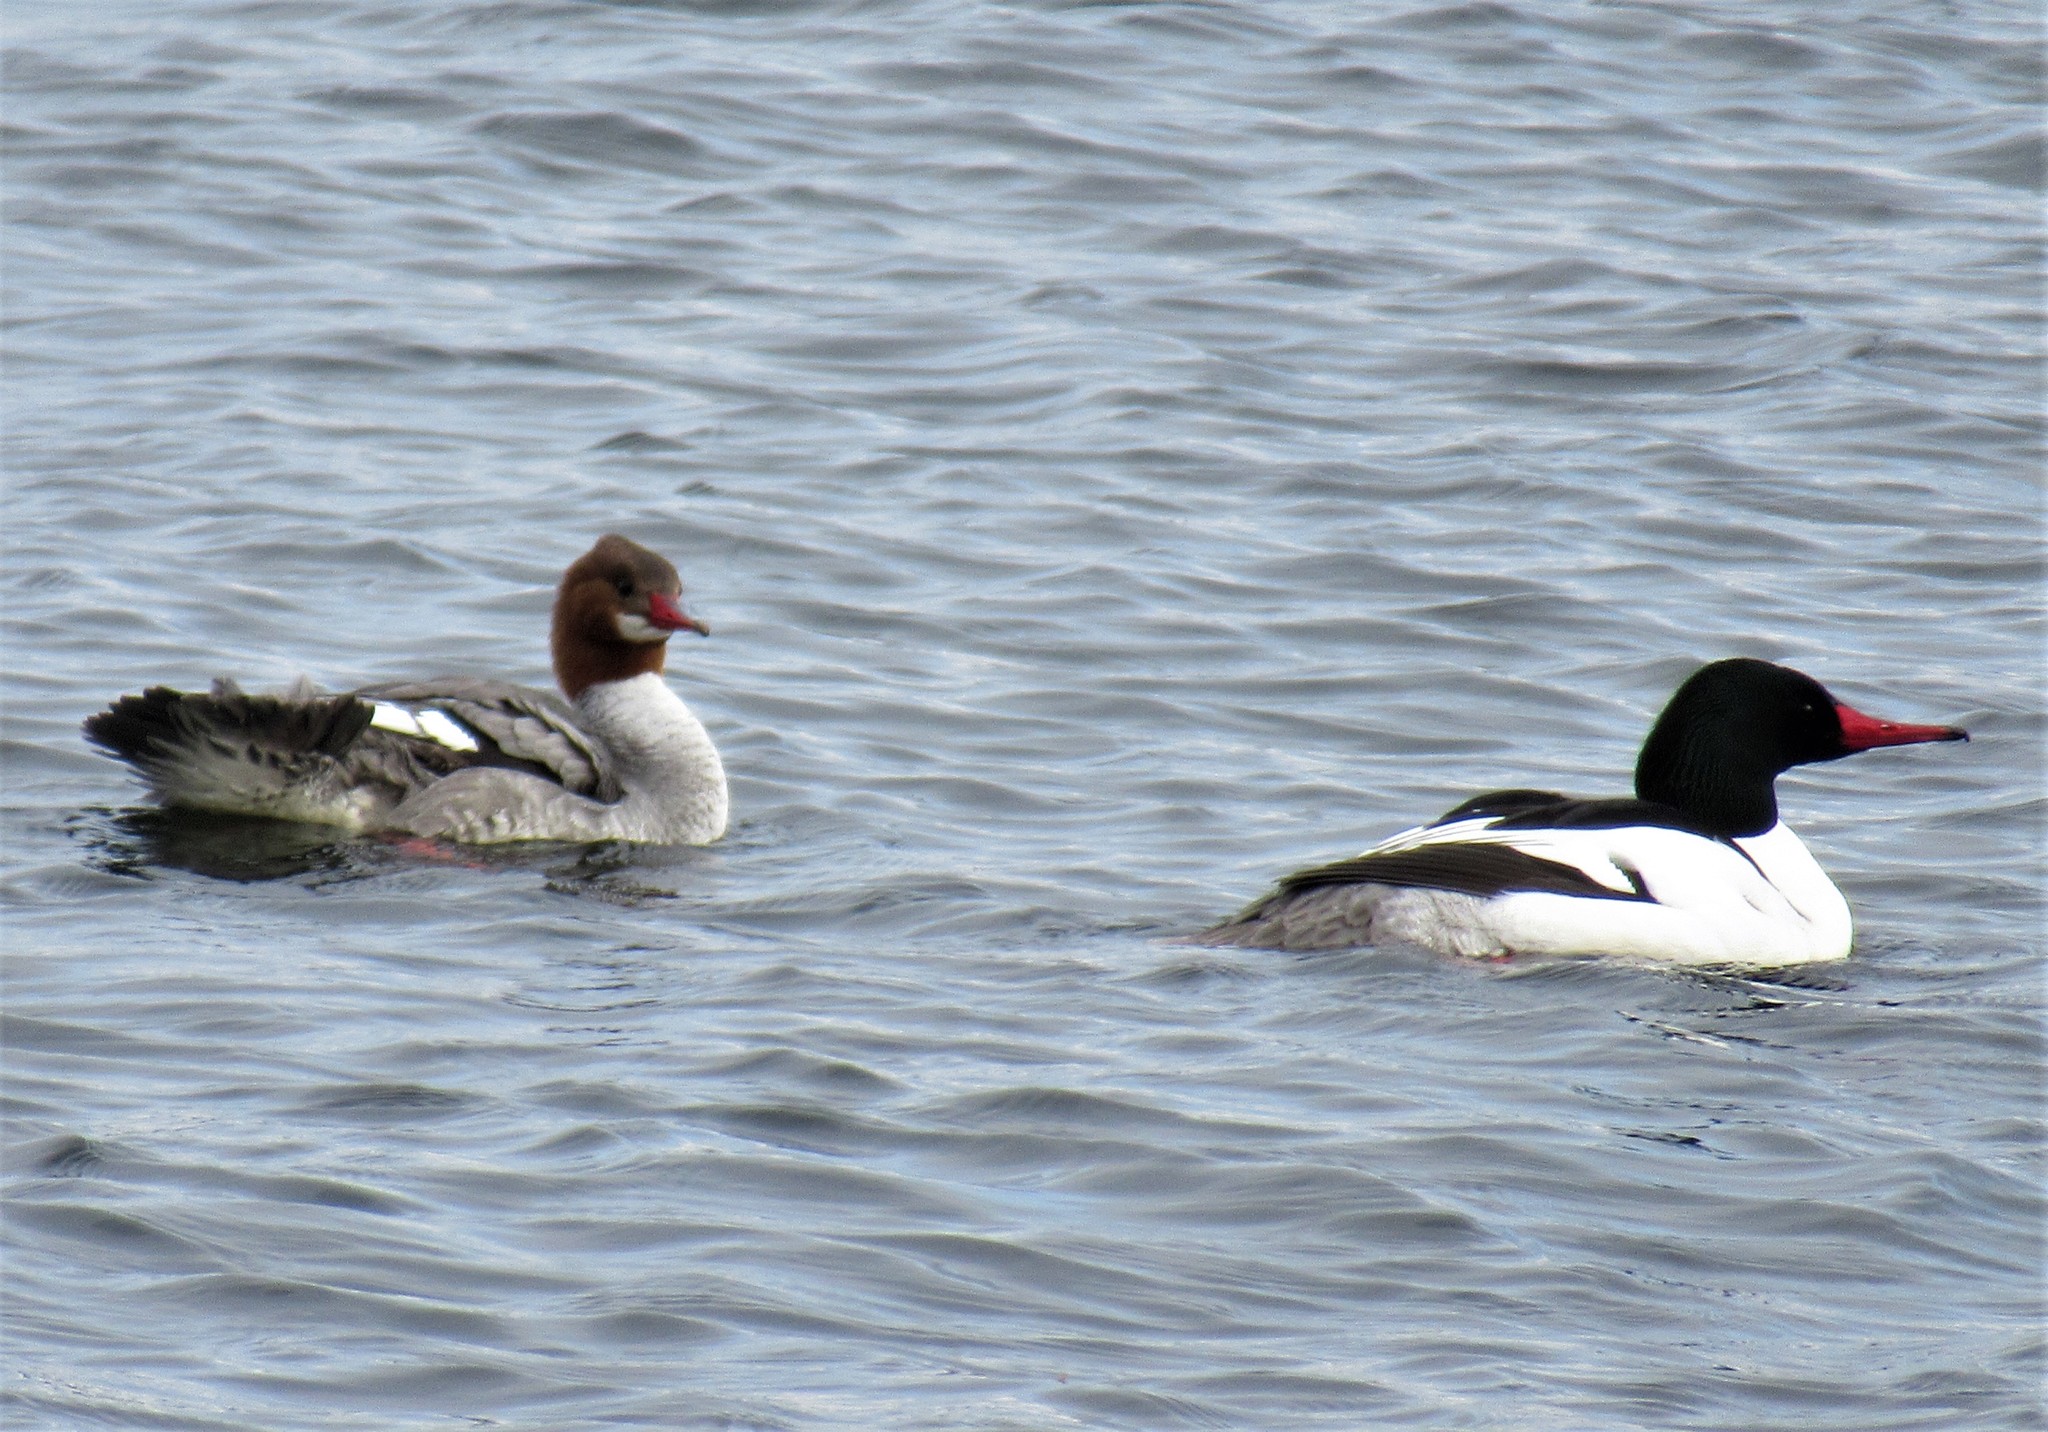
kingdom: Animalia
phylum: Chordata
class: Aves
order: Anseriformes
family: Anatidae
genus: Mergus
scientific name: Mergus merganser
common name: Common merganser
